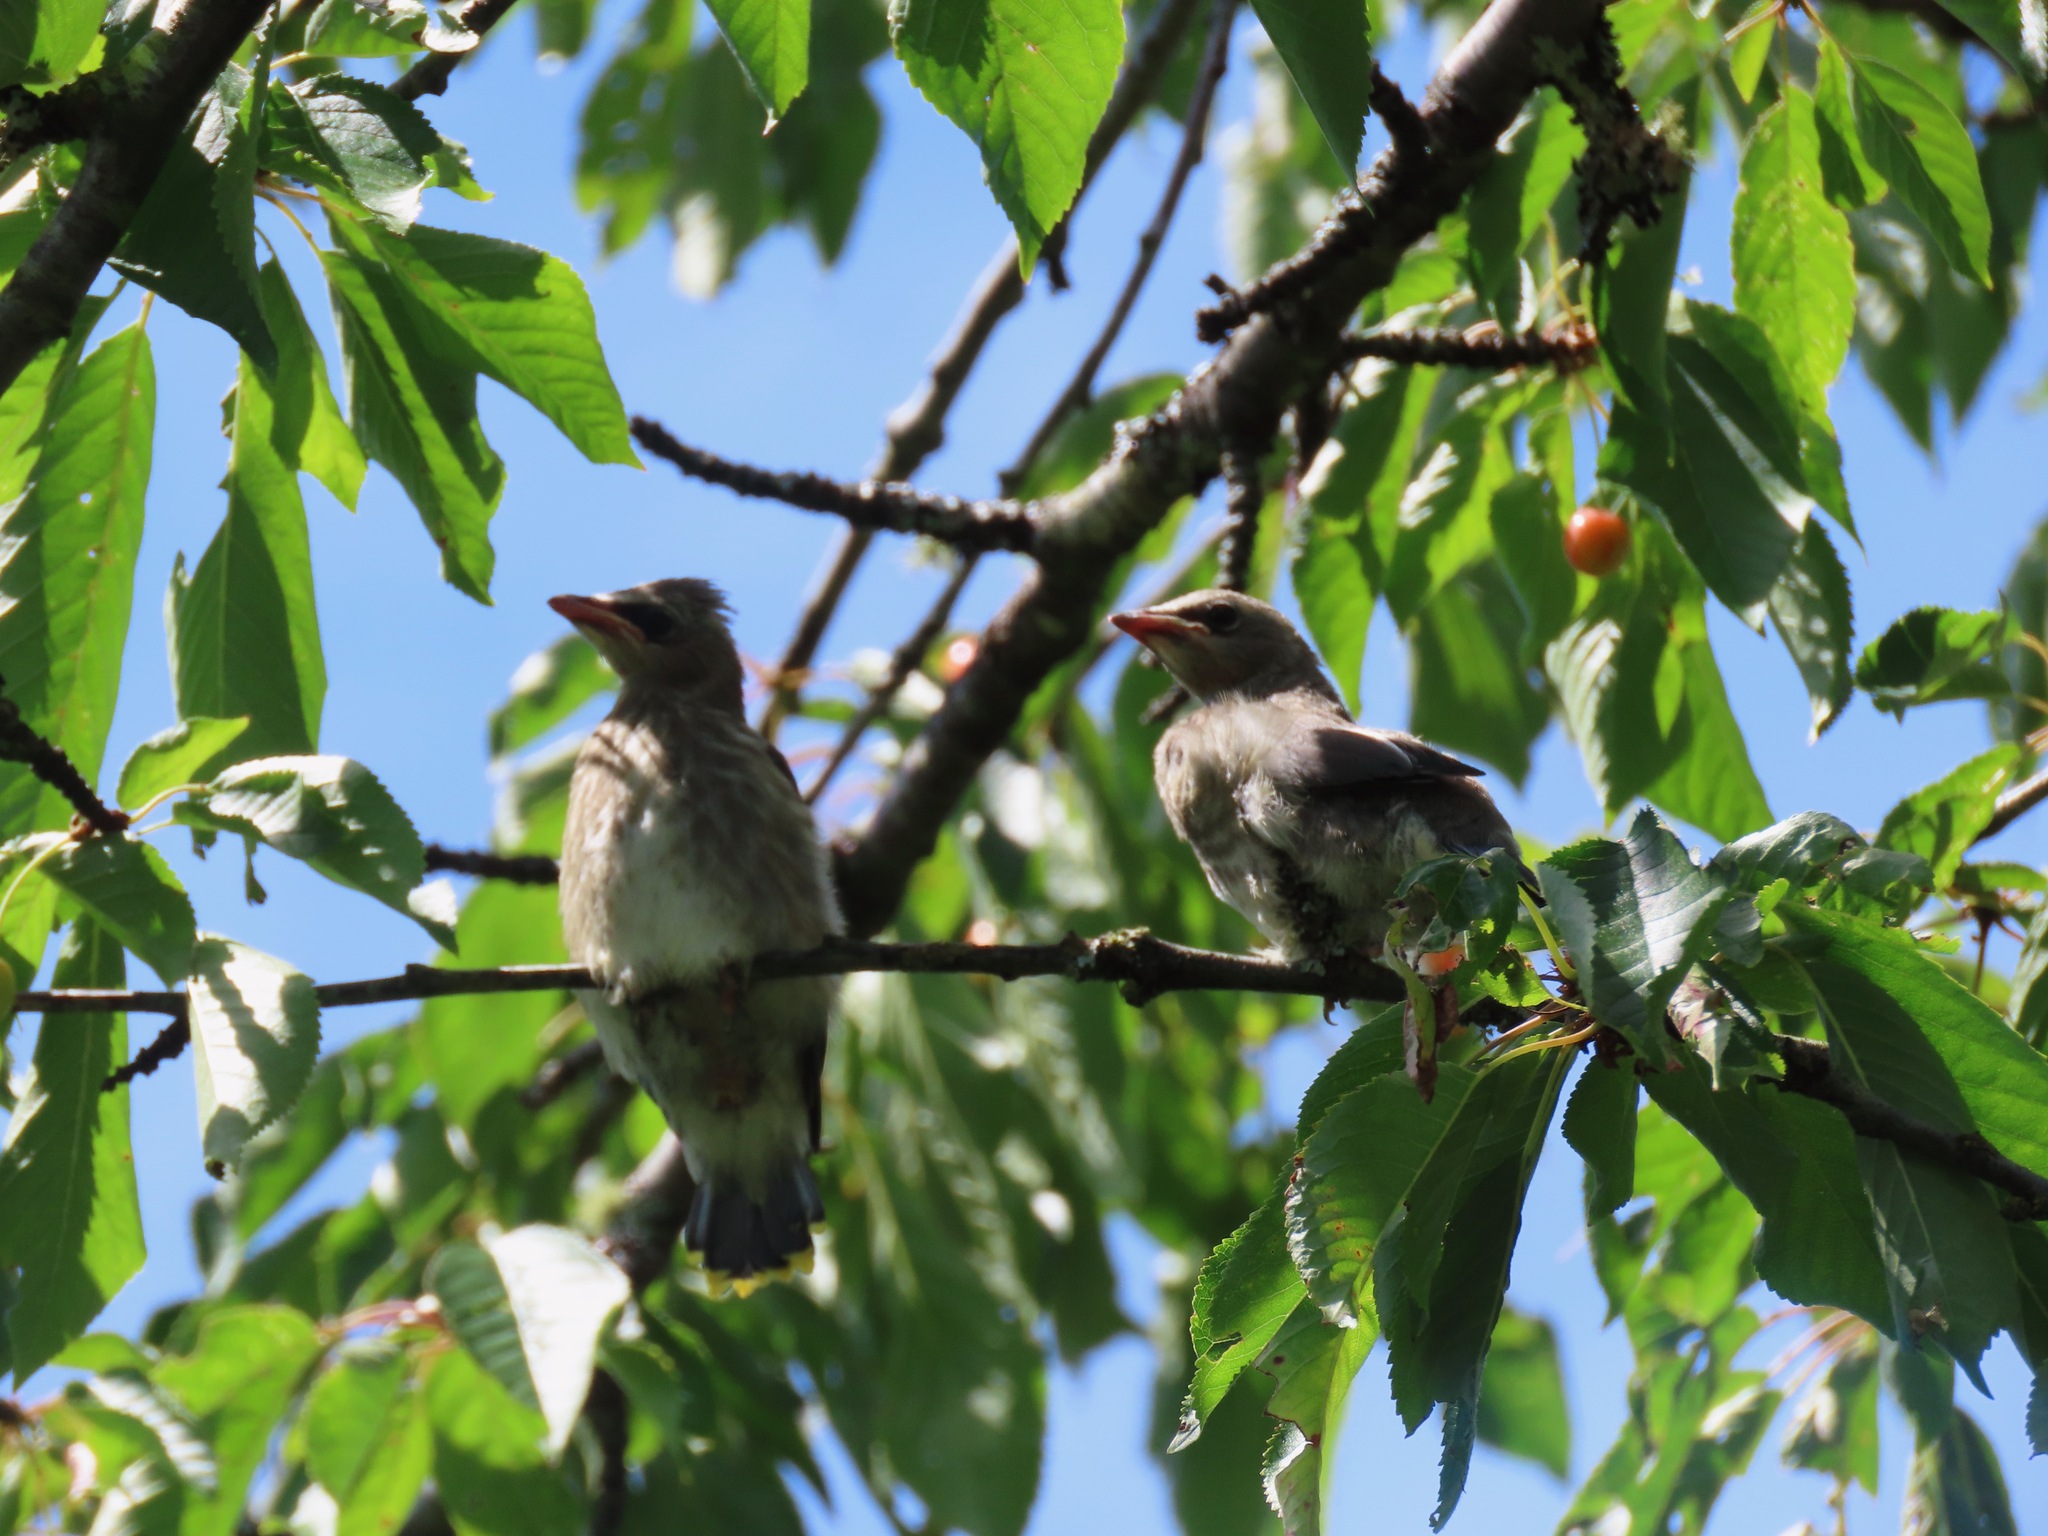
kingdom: Animalia
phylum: Chordata
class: Aves
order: Passeriformes
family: Bombycillidae
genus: Bombycilla
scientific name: Bombycilla cedrorum
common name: Cedar waxwing
